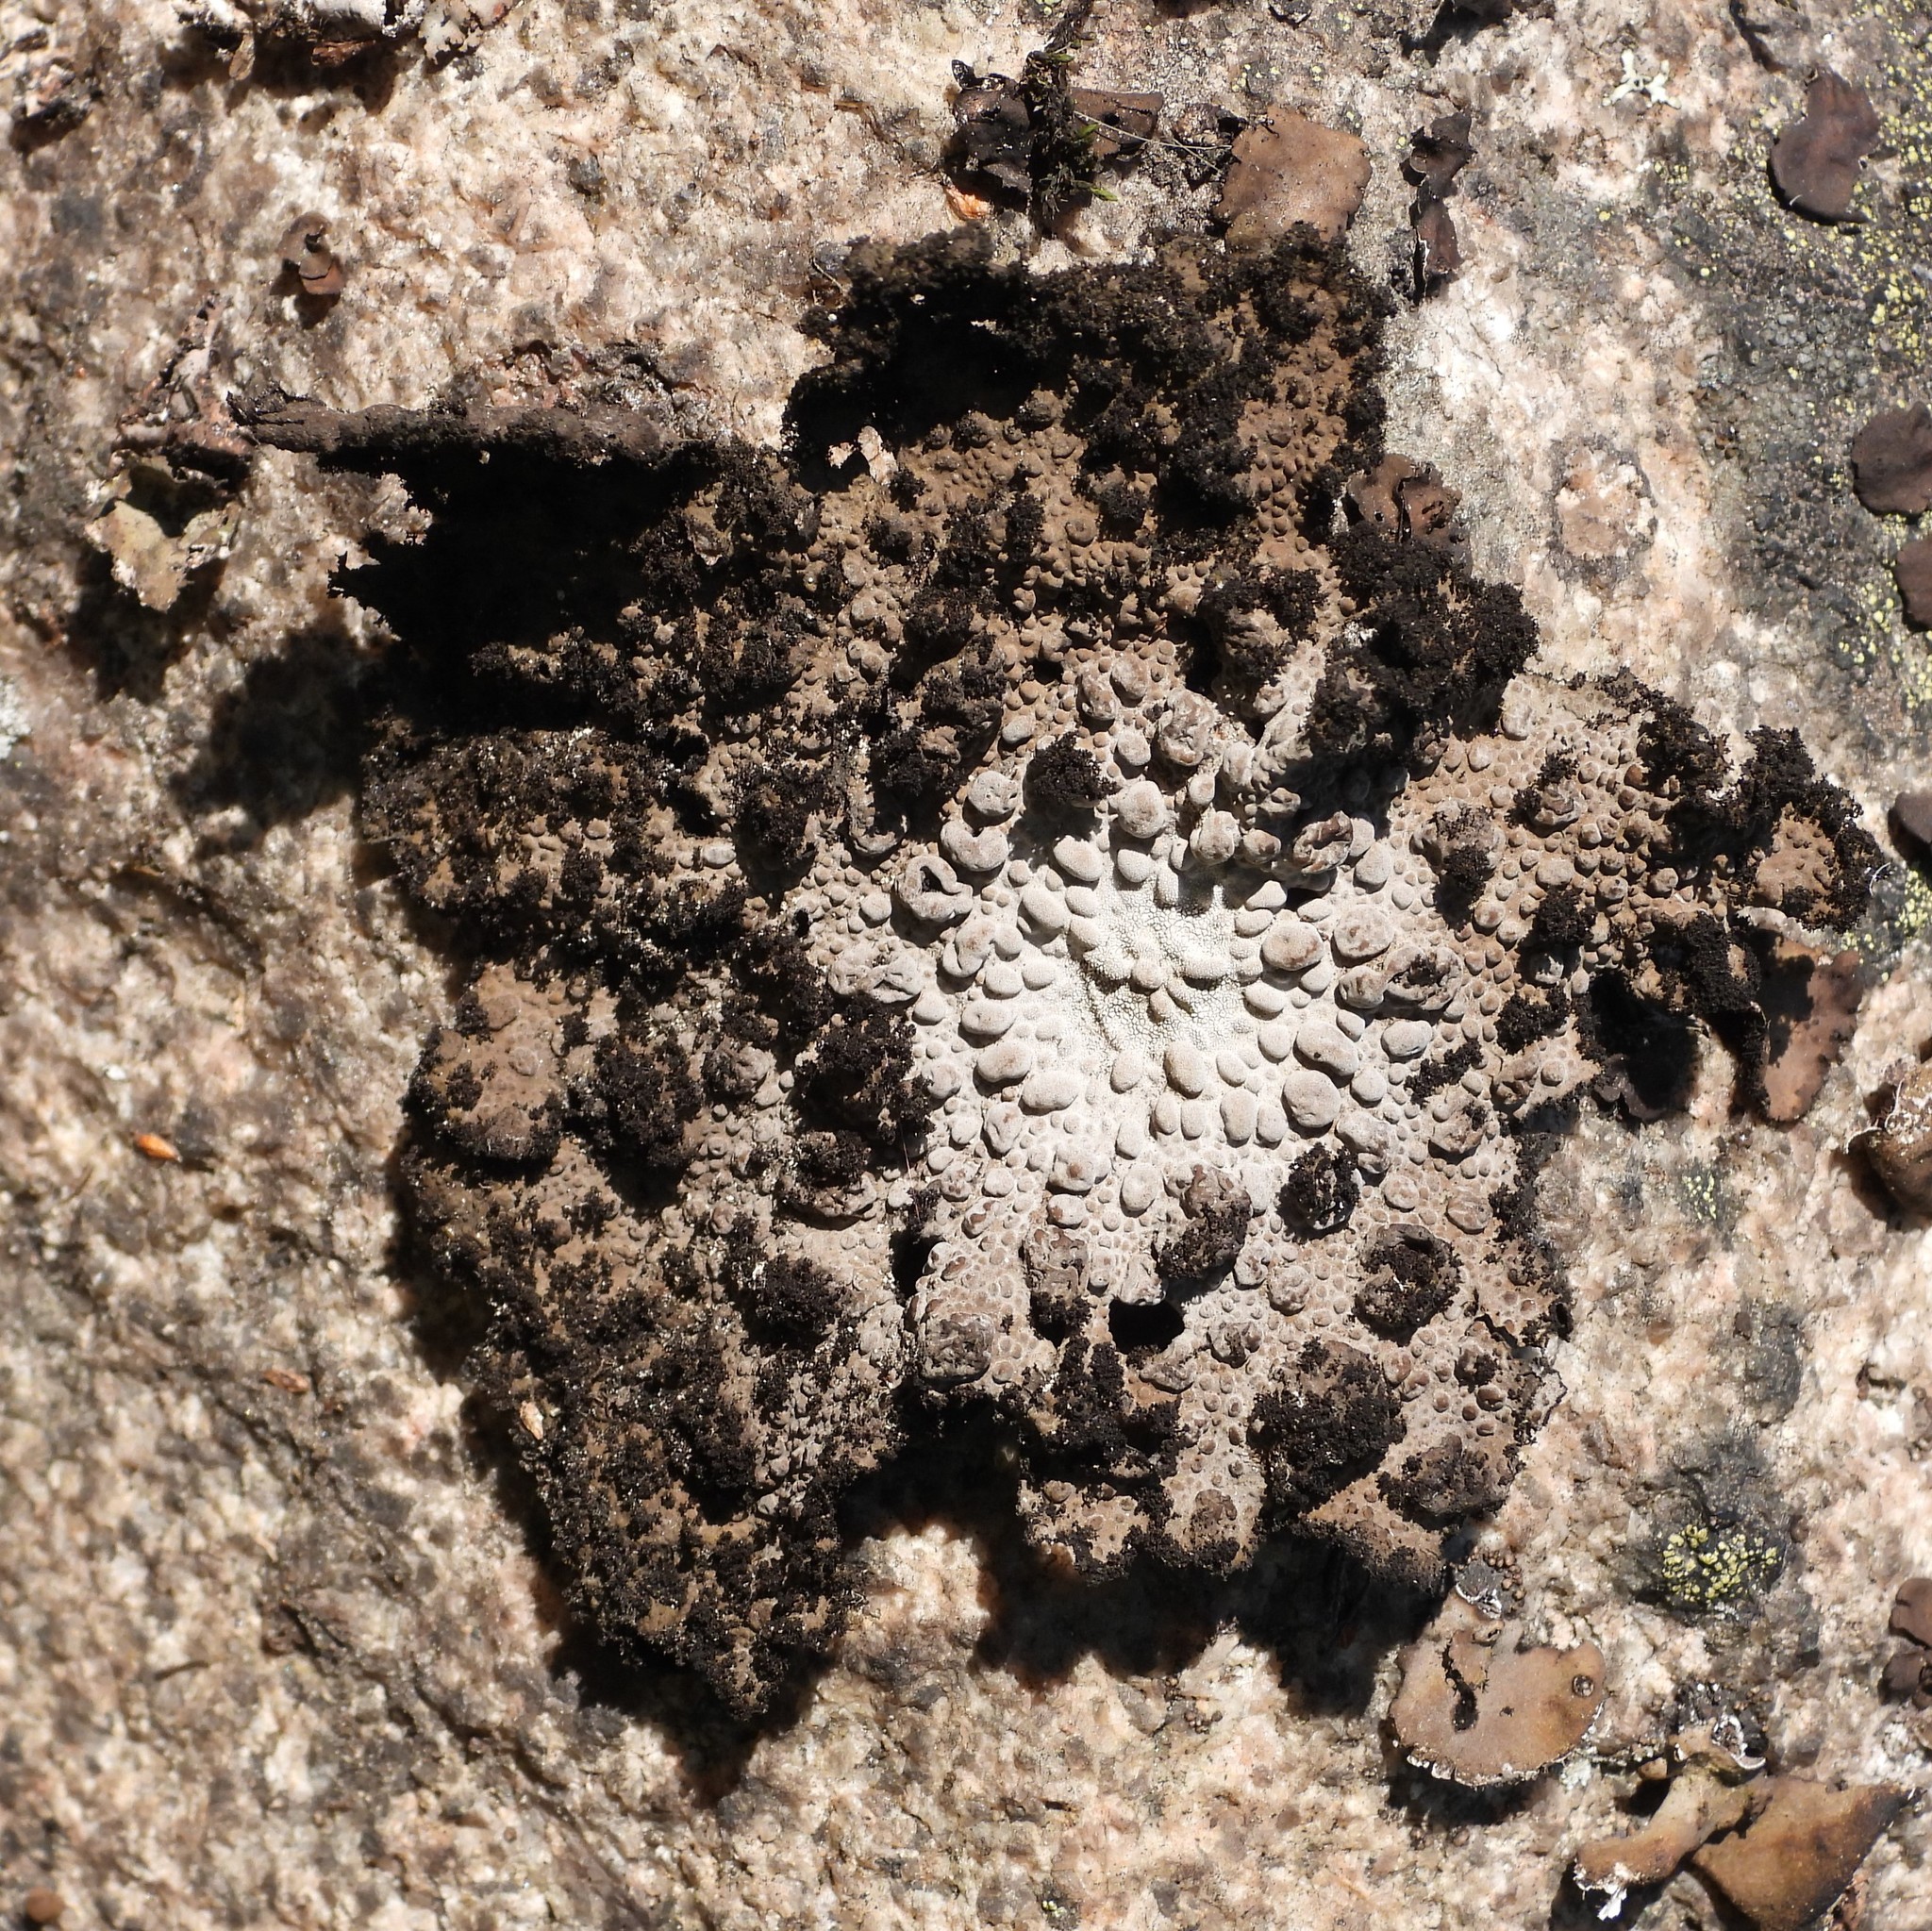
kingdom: Fungi
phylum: Ascomycota
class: Lecanoromycetes
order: Umbilicariales
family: Umbilicariaceae
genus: Lasallia
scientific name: Lasallia pustulata
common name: Blistered toadskin lichen
